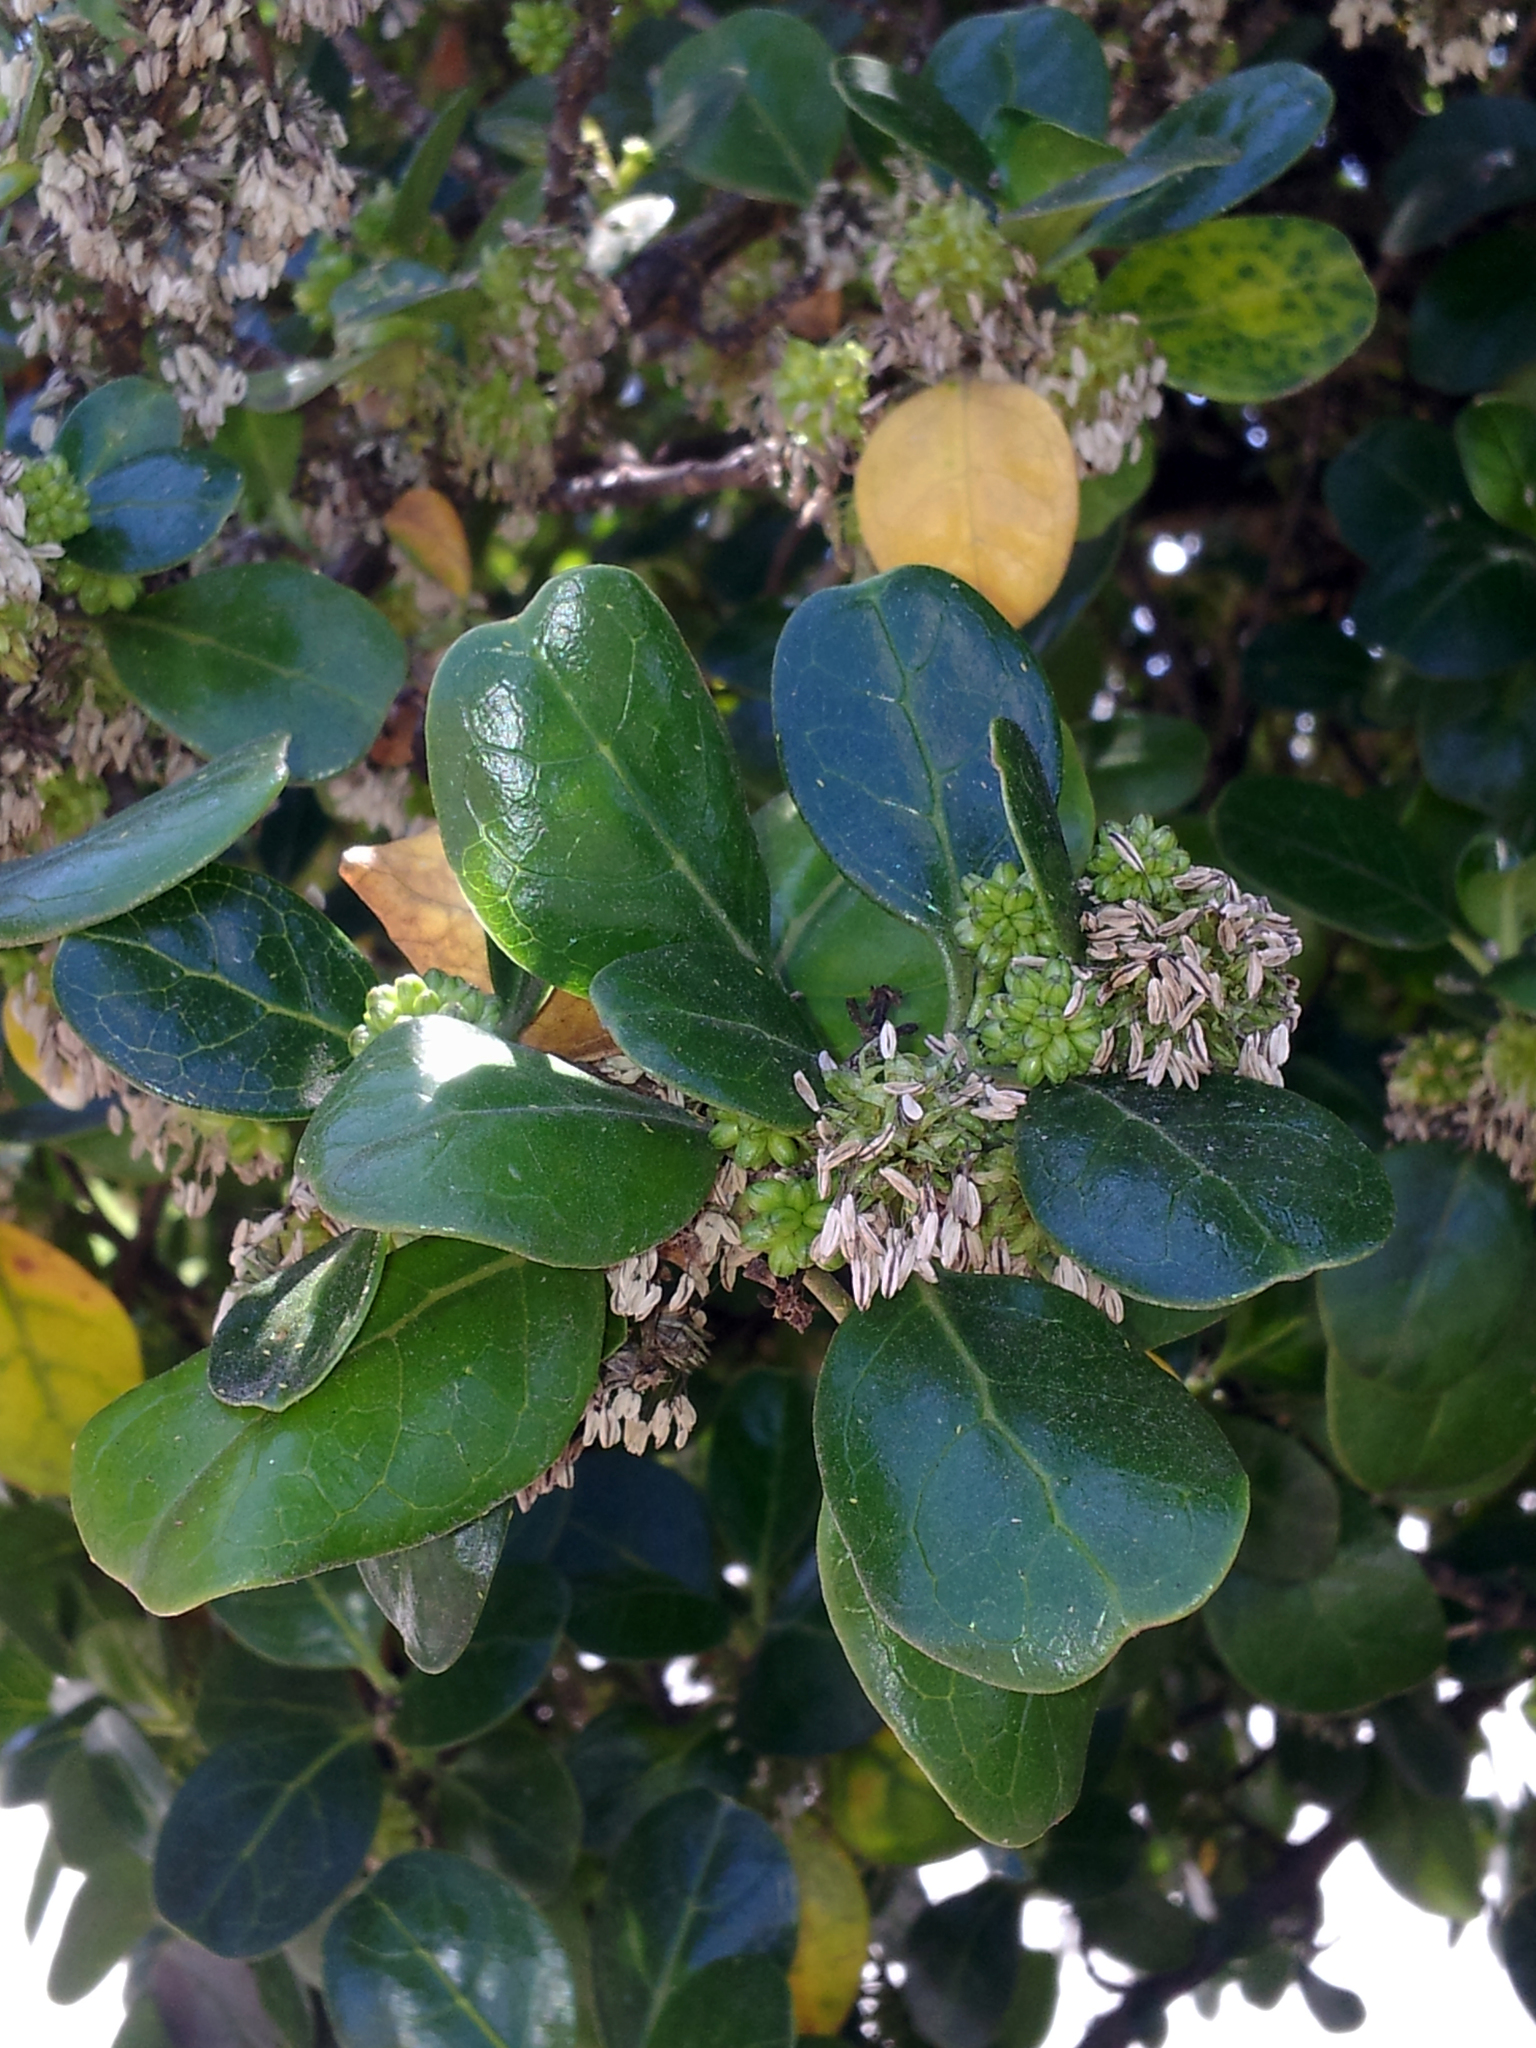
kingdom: Plantae
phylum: Tracheophyta
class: Magnoliopsida
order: Gentianales
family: Rubiaceae
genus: Coprosma
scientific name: Coprosma repens
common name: Tree bedstraw
